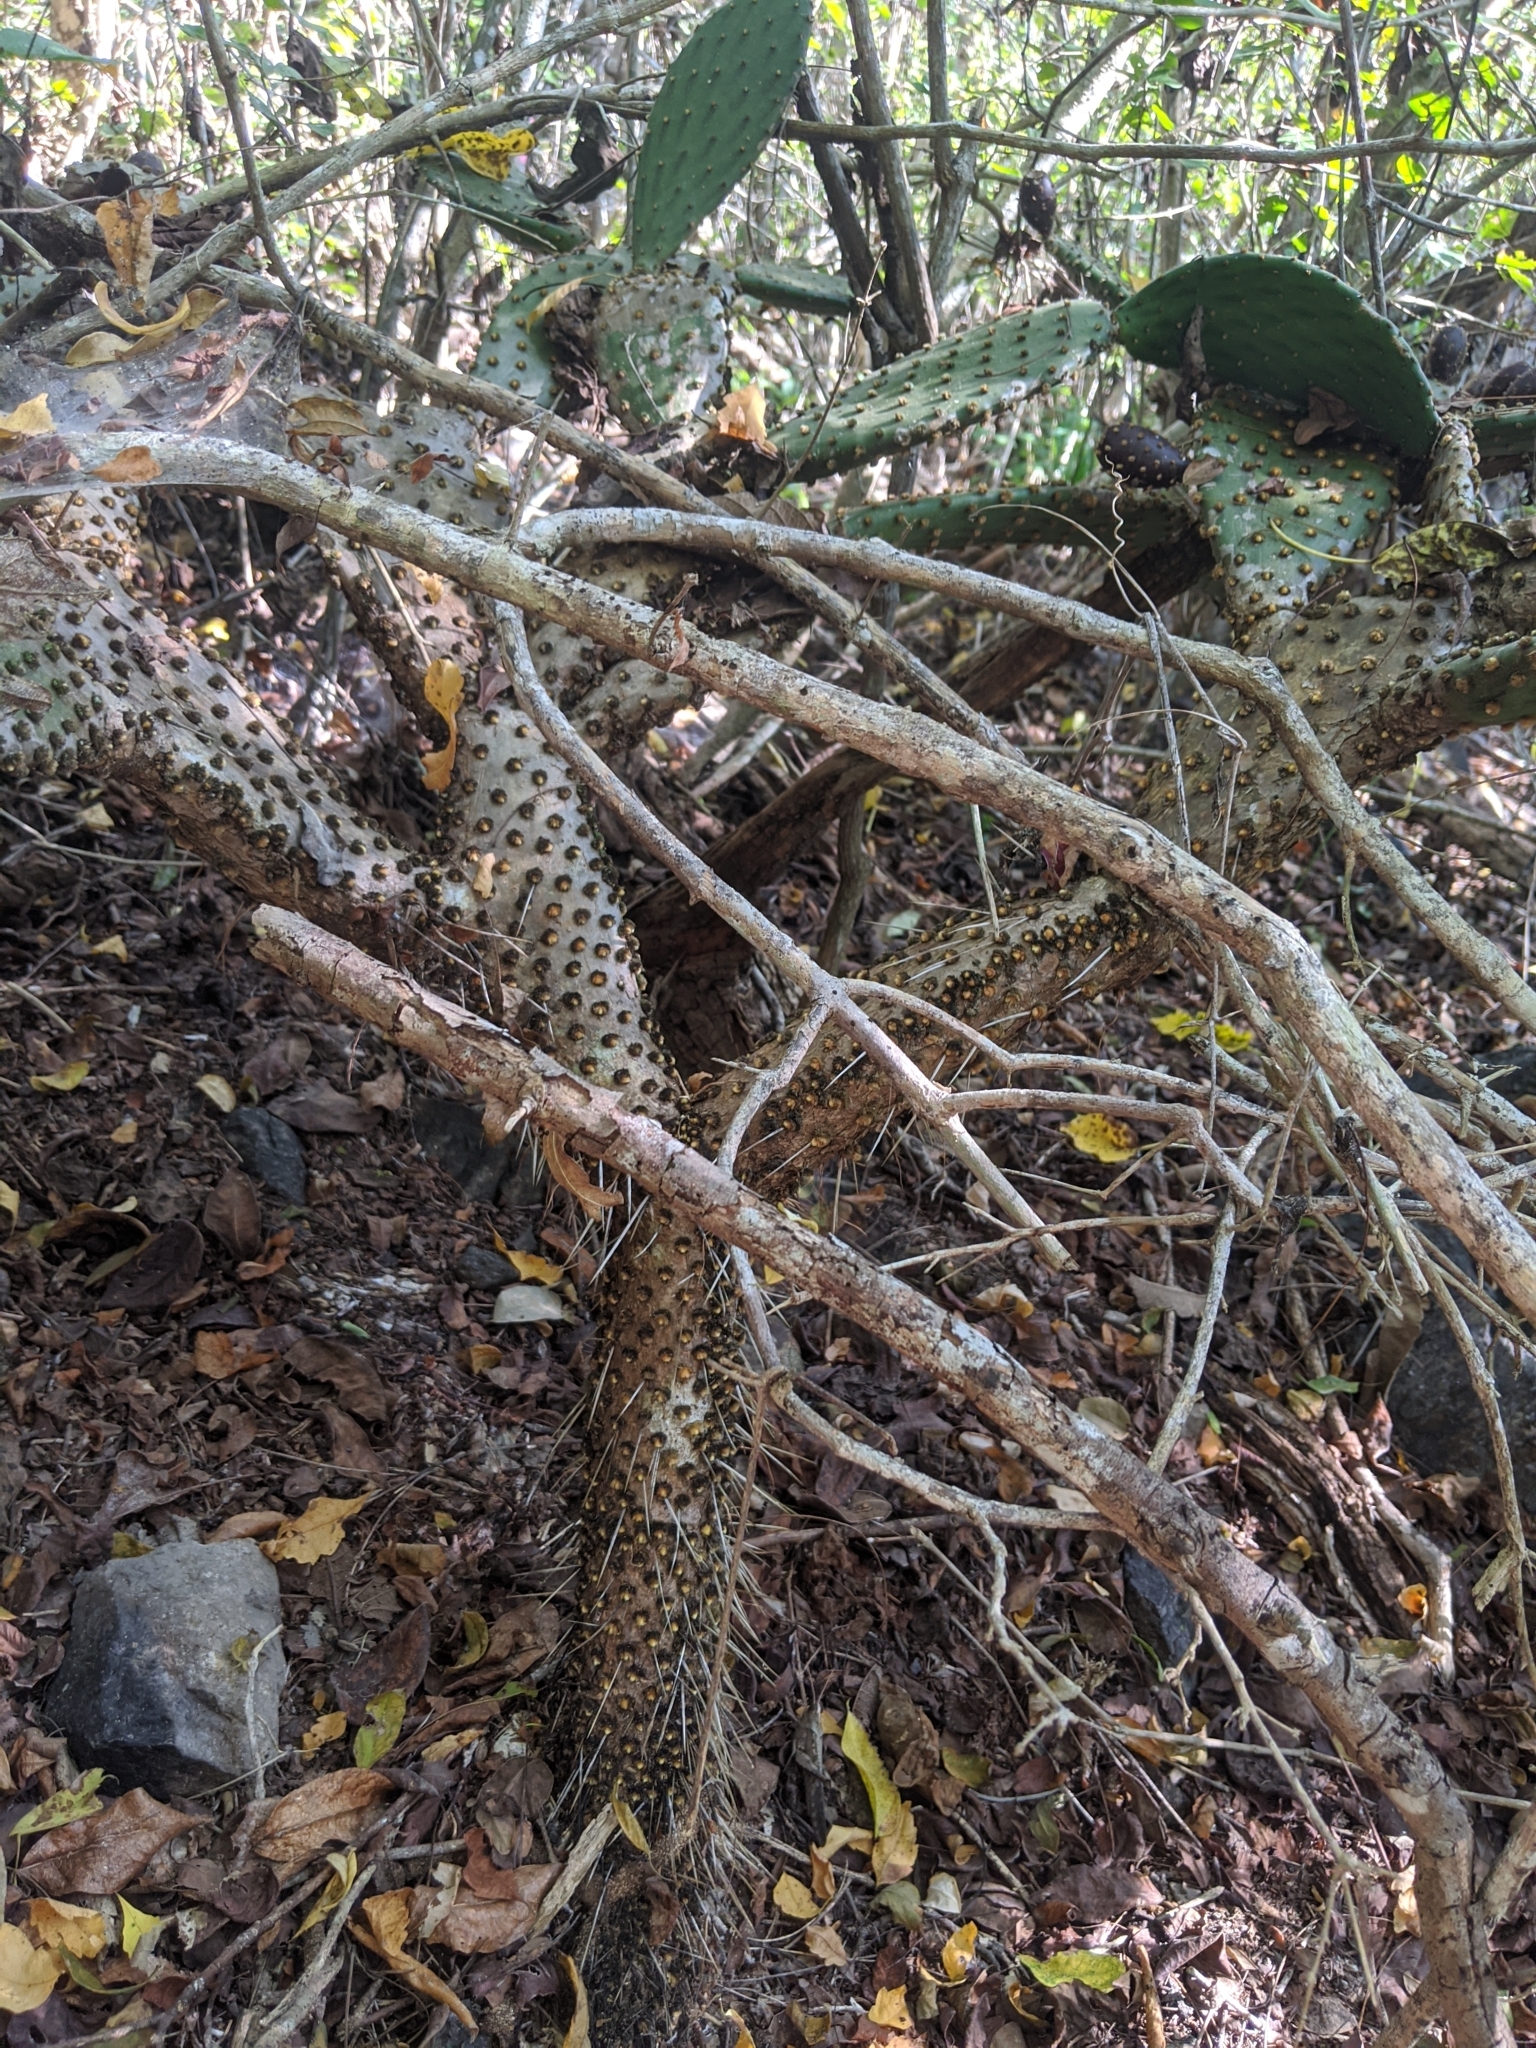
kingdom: Plantae
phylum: Tracheophyta
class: Magnoliopsida
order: Caryophyllales
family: Cactaceae
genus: Opuntia
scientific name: Opuntia decumbens
